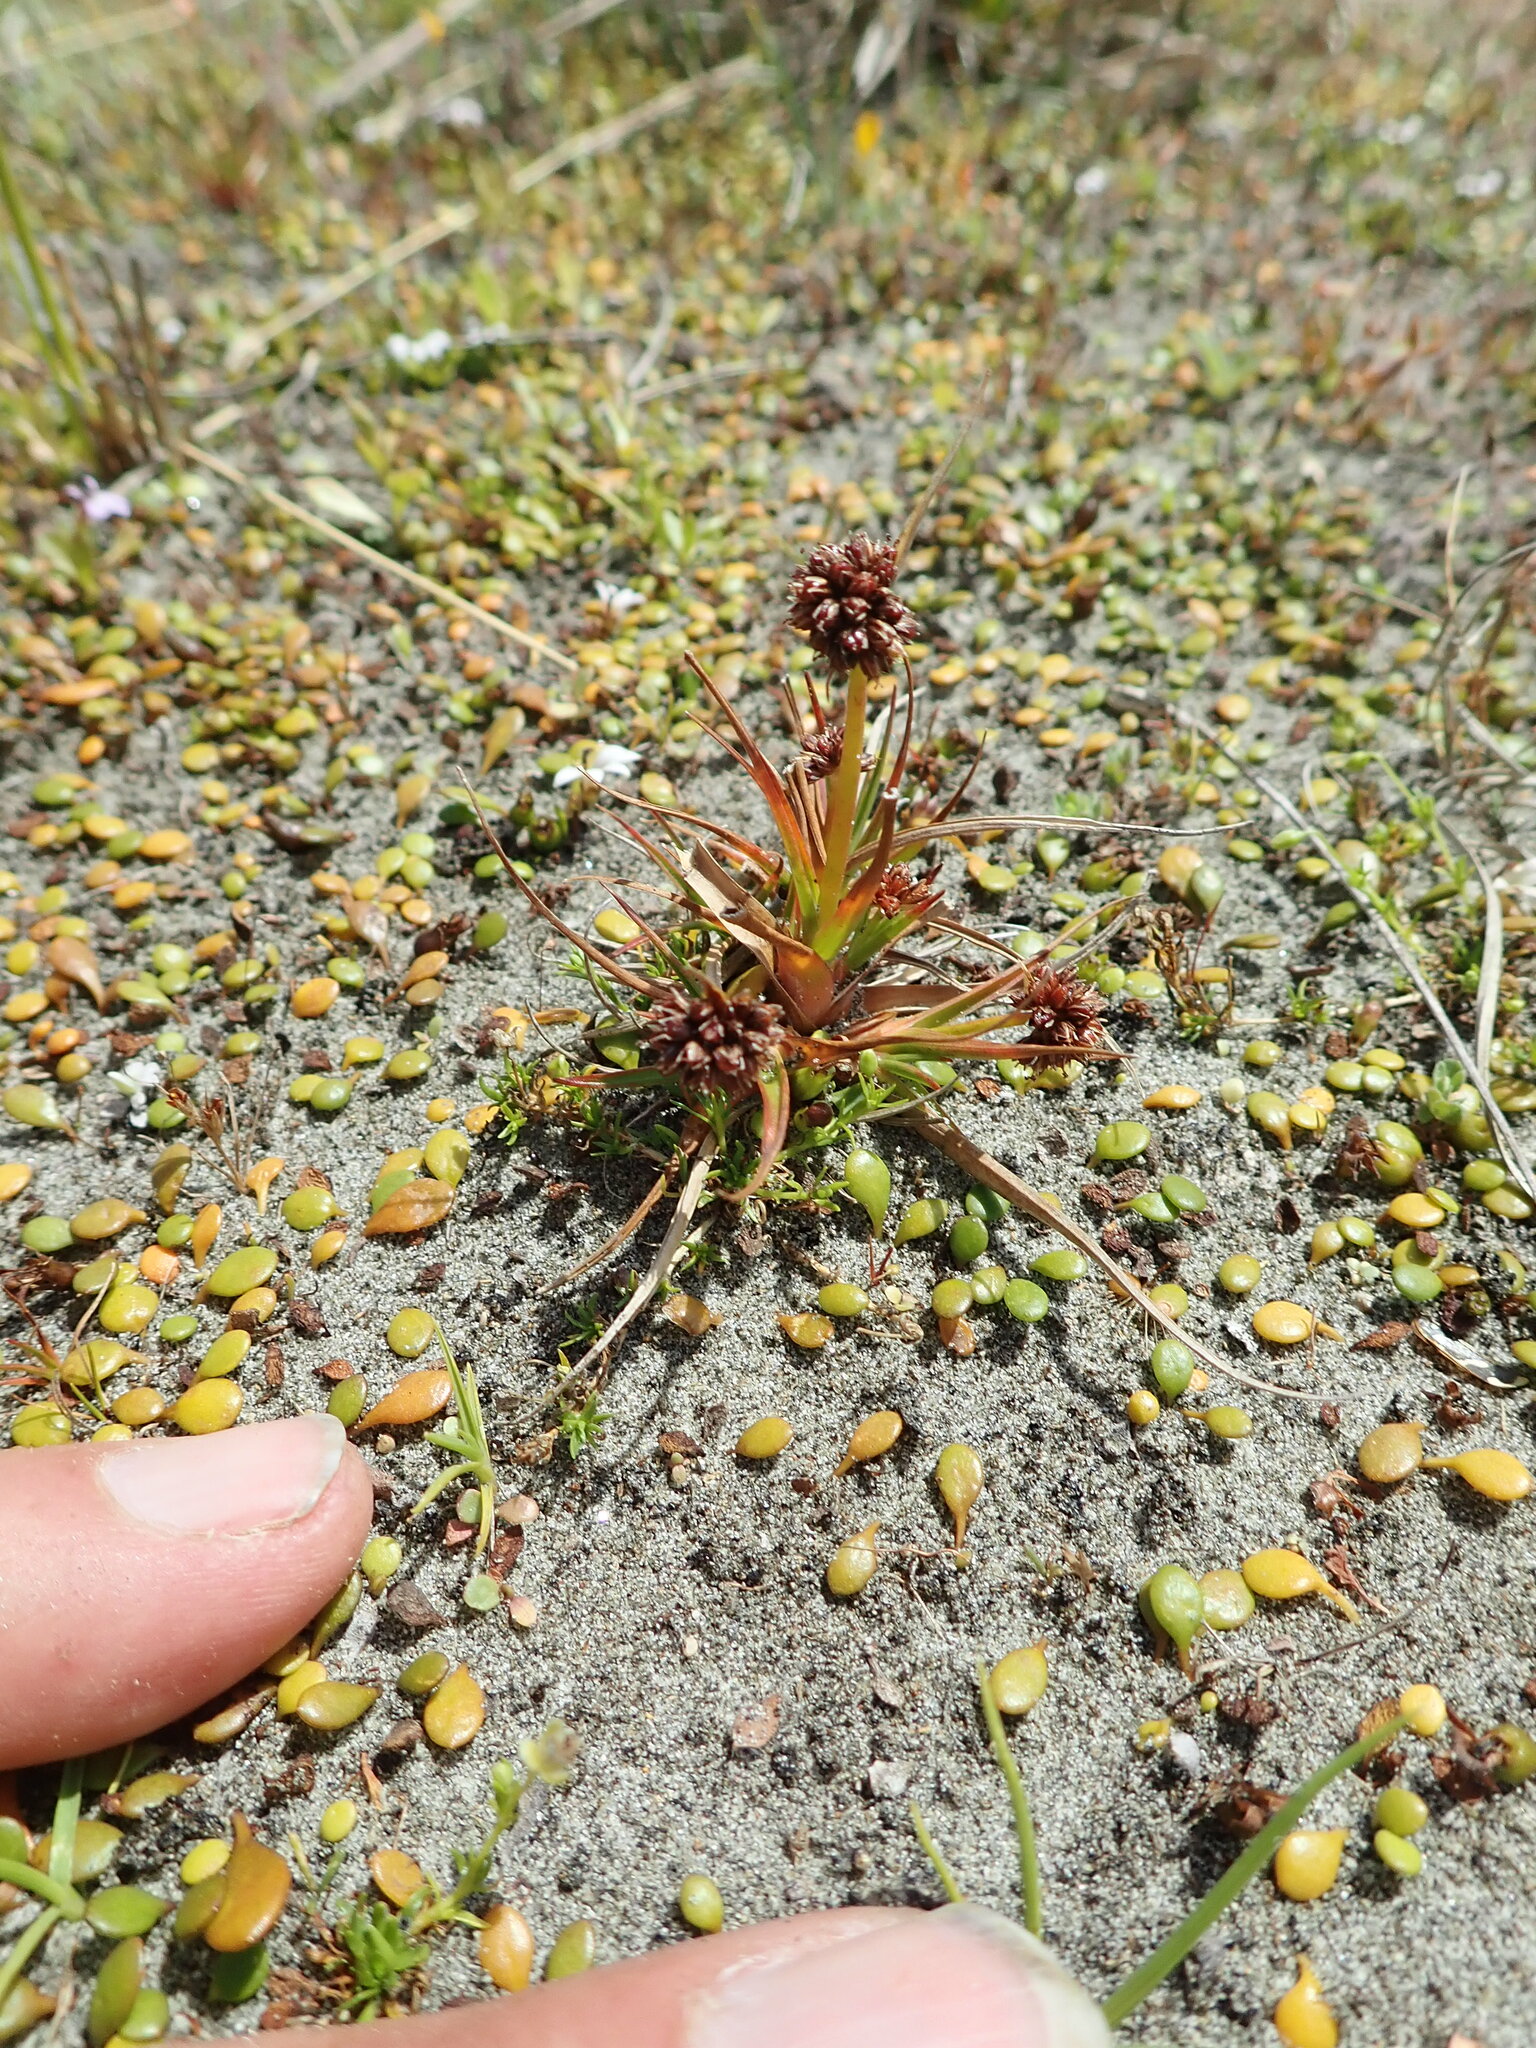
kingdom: Plantae
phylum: Tracheophyta
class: Liliopsida
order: Poales
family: Juncaceae
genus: Juncus
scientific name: Juncus caespiticius
